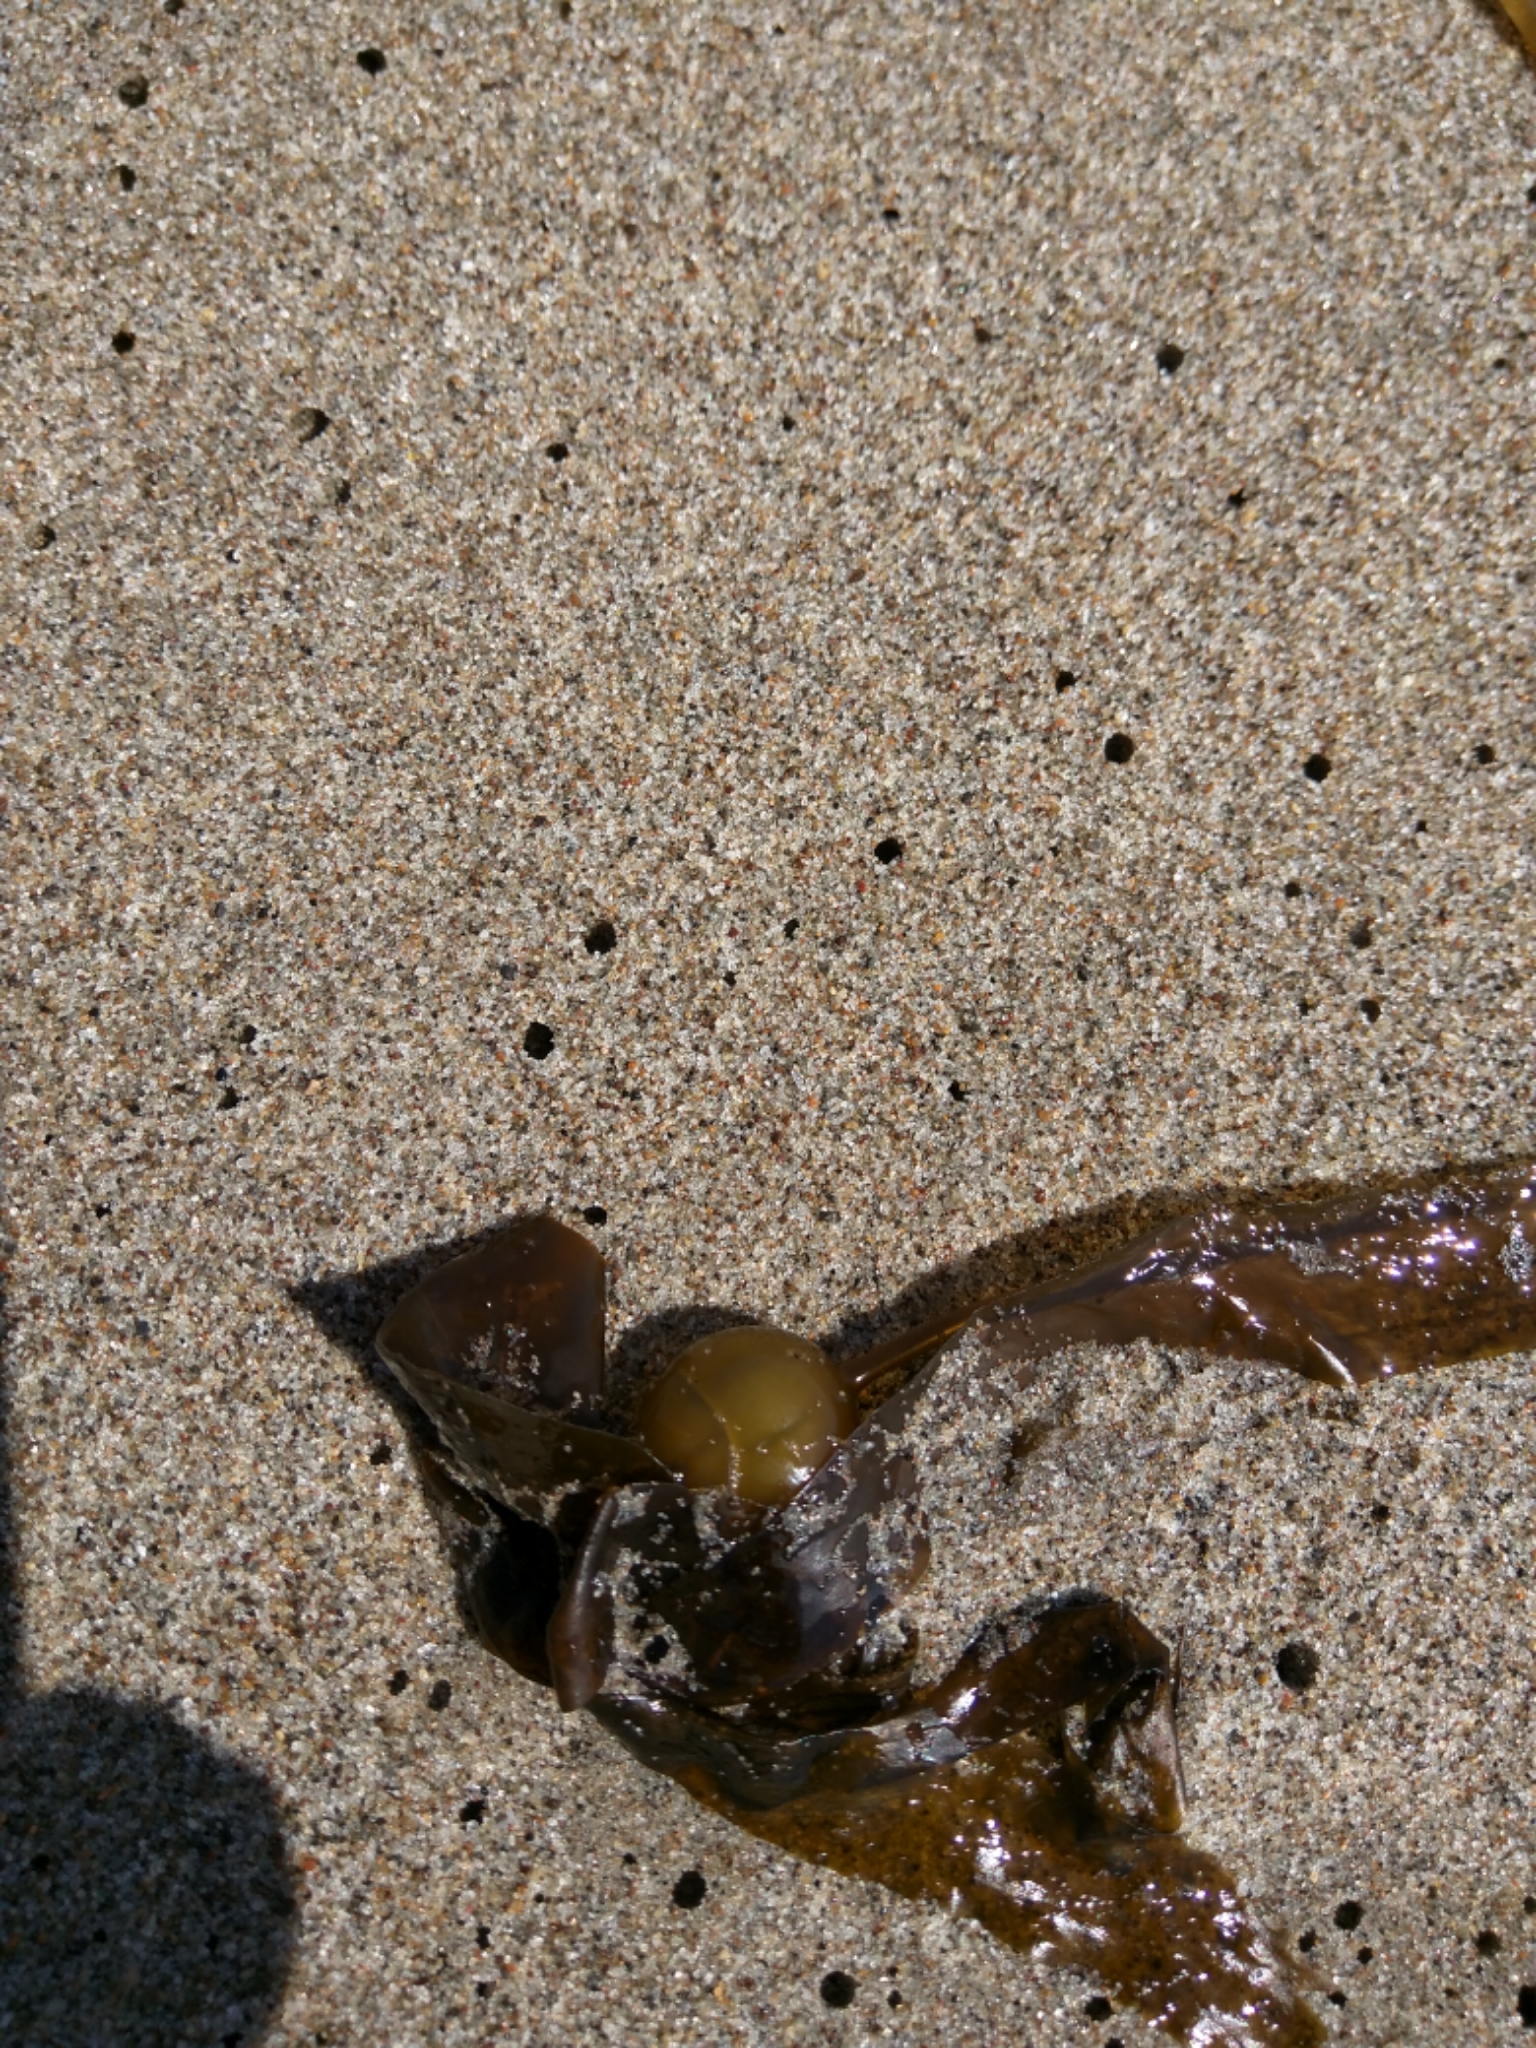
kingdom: Chromista
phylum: Ochrophyta
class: Phaeophyceae
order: Laminariales
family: Laminariaceae
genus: Nereocystis
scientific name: Nereocystis luetkeana
